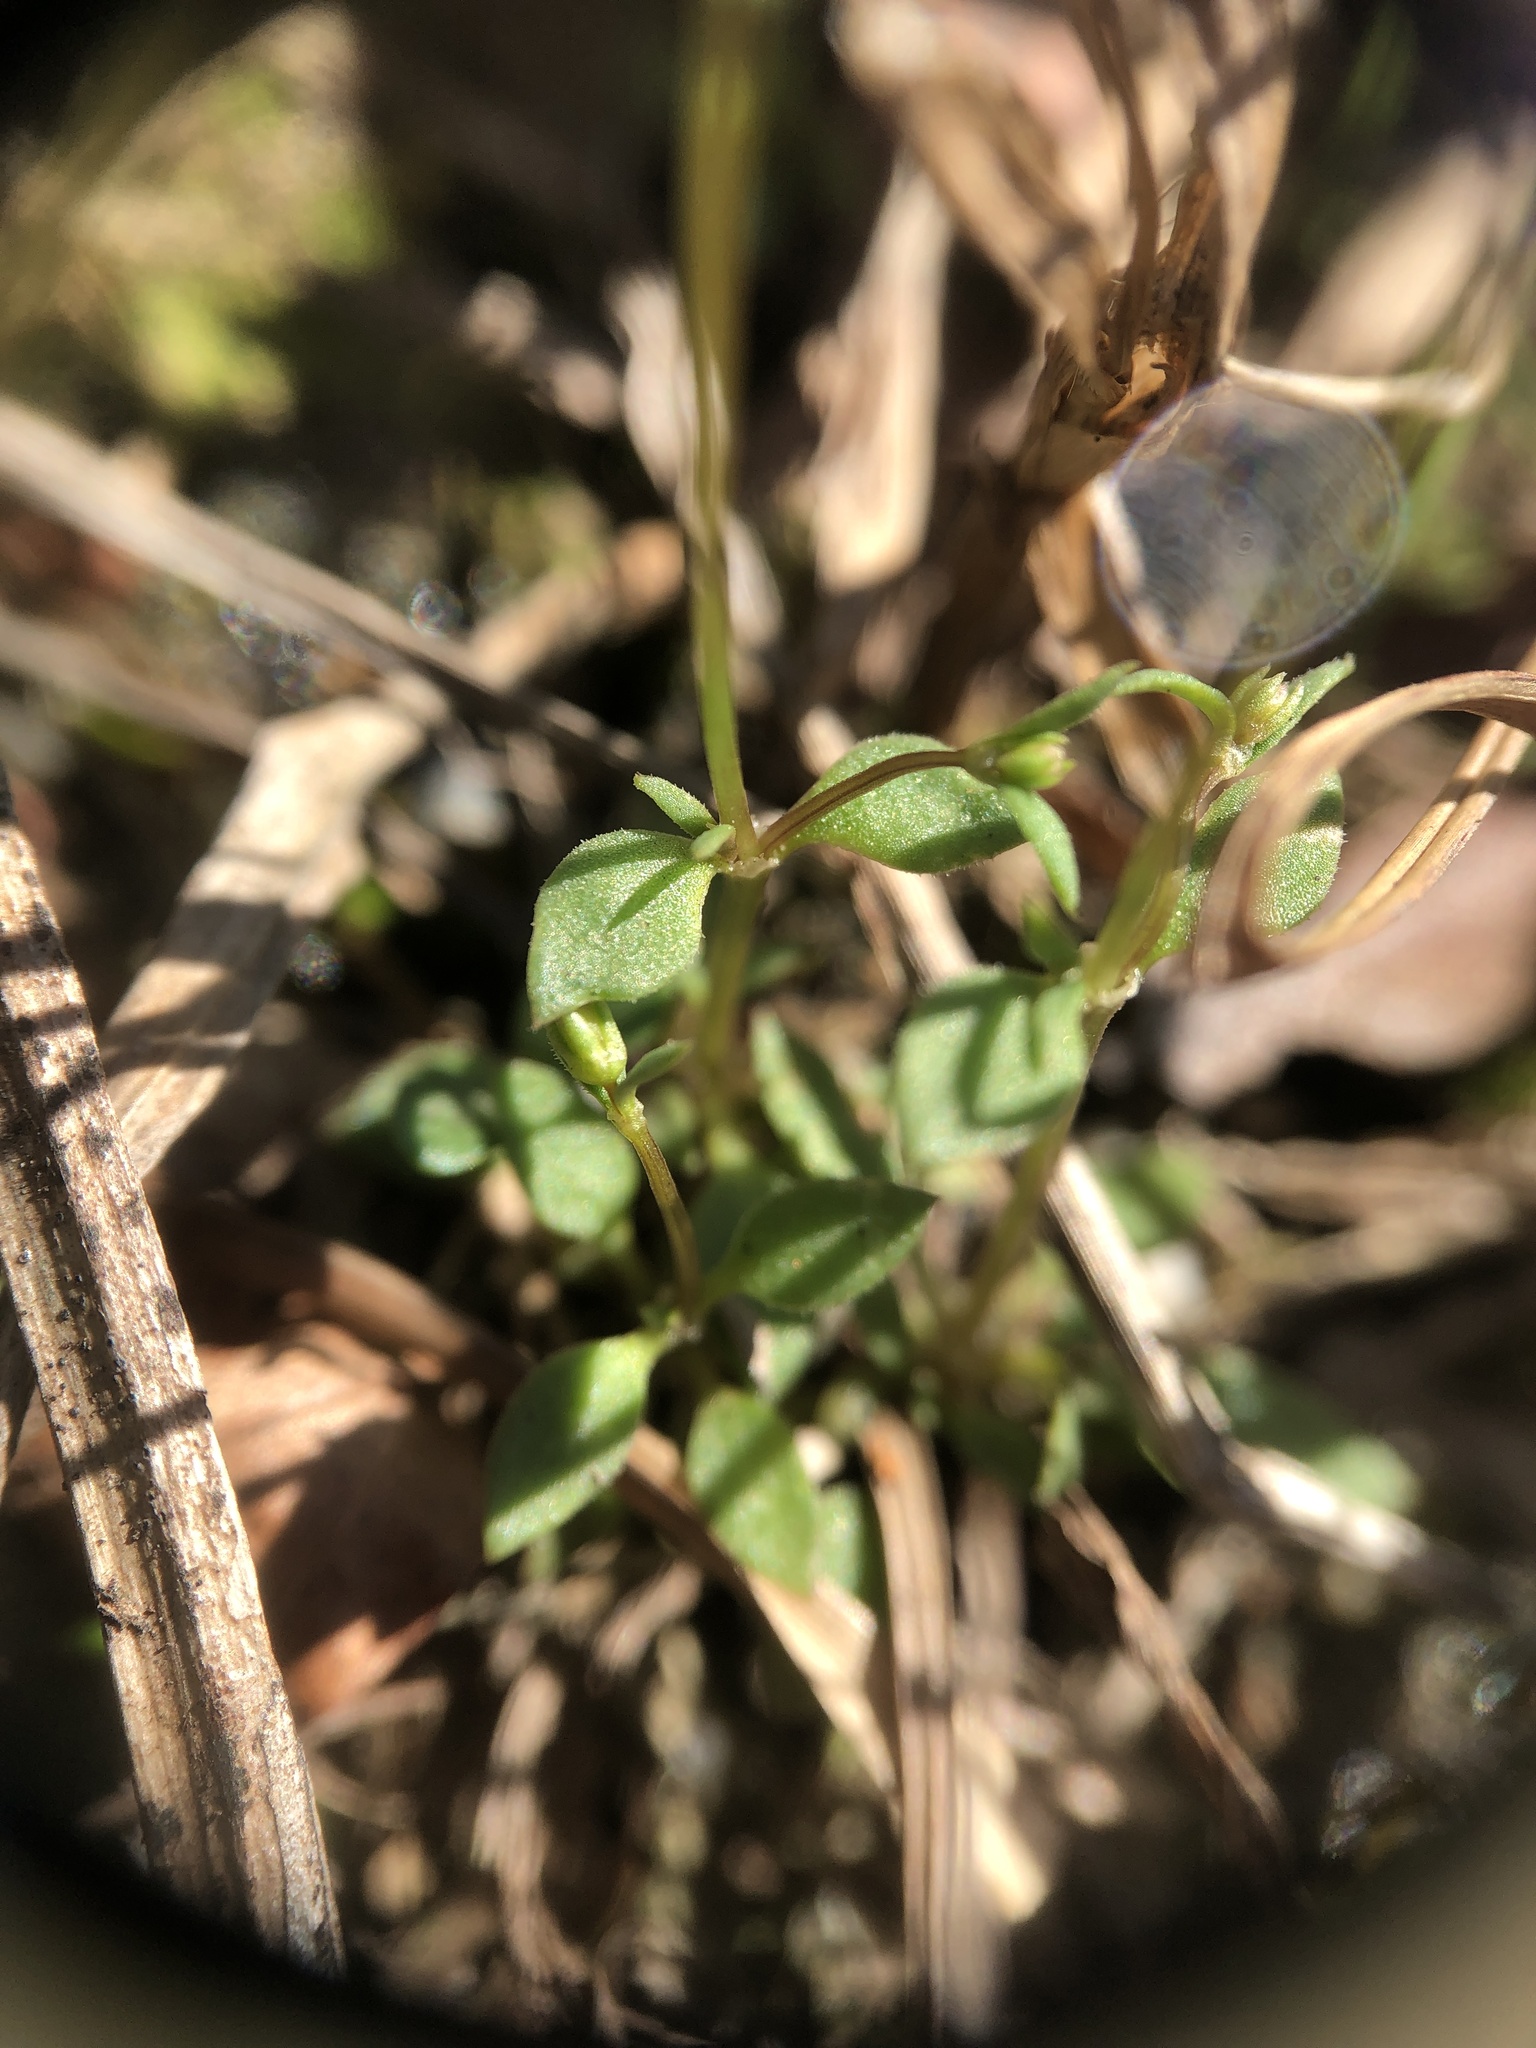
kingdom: Plantae
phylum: Tracheophyta
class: Magnoliopsida
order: Gentianales
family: Rubiaceae
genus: Houstonia
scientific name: Houstonia pusilla
